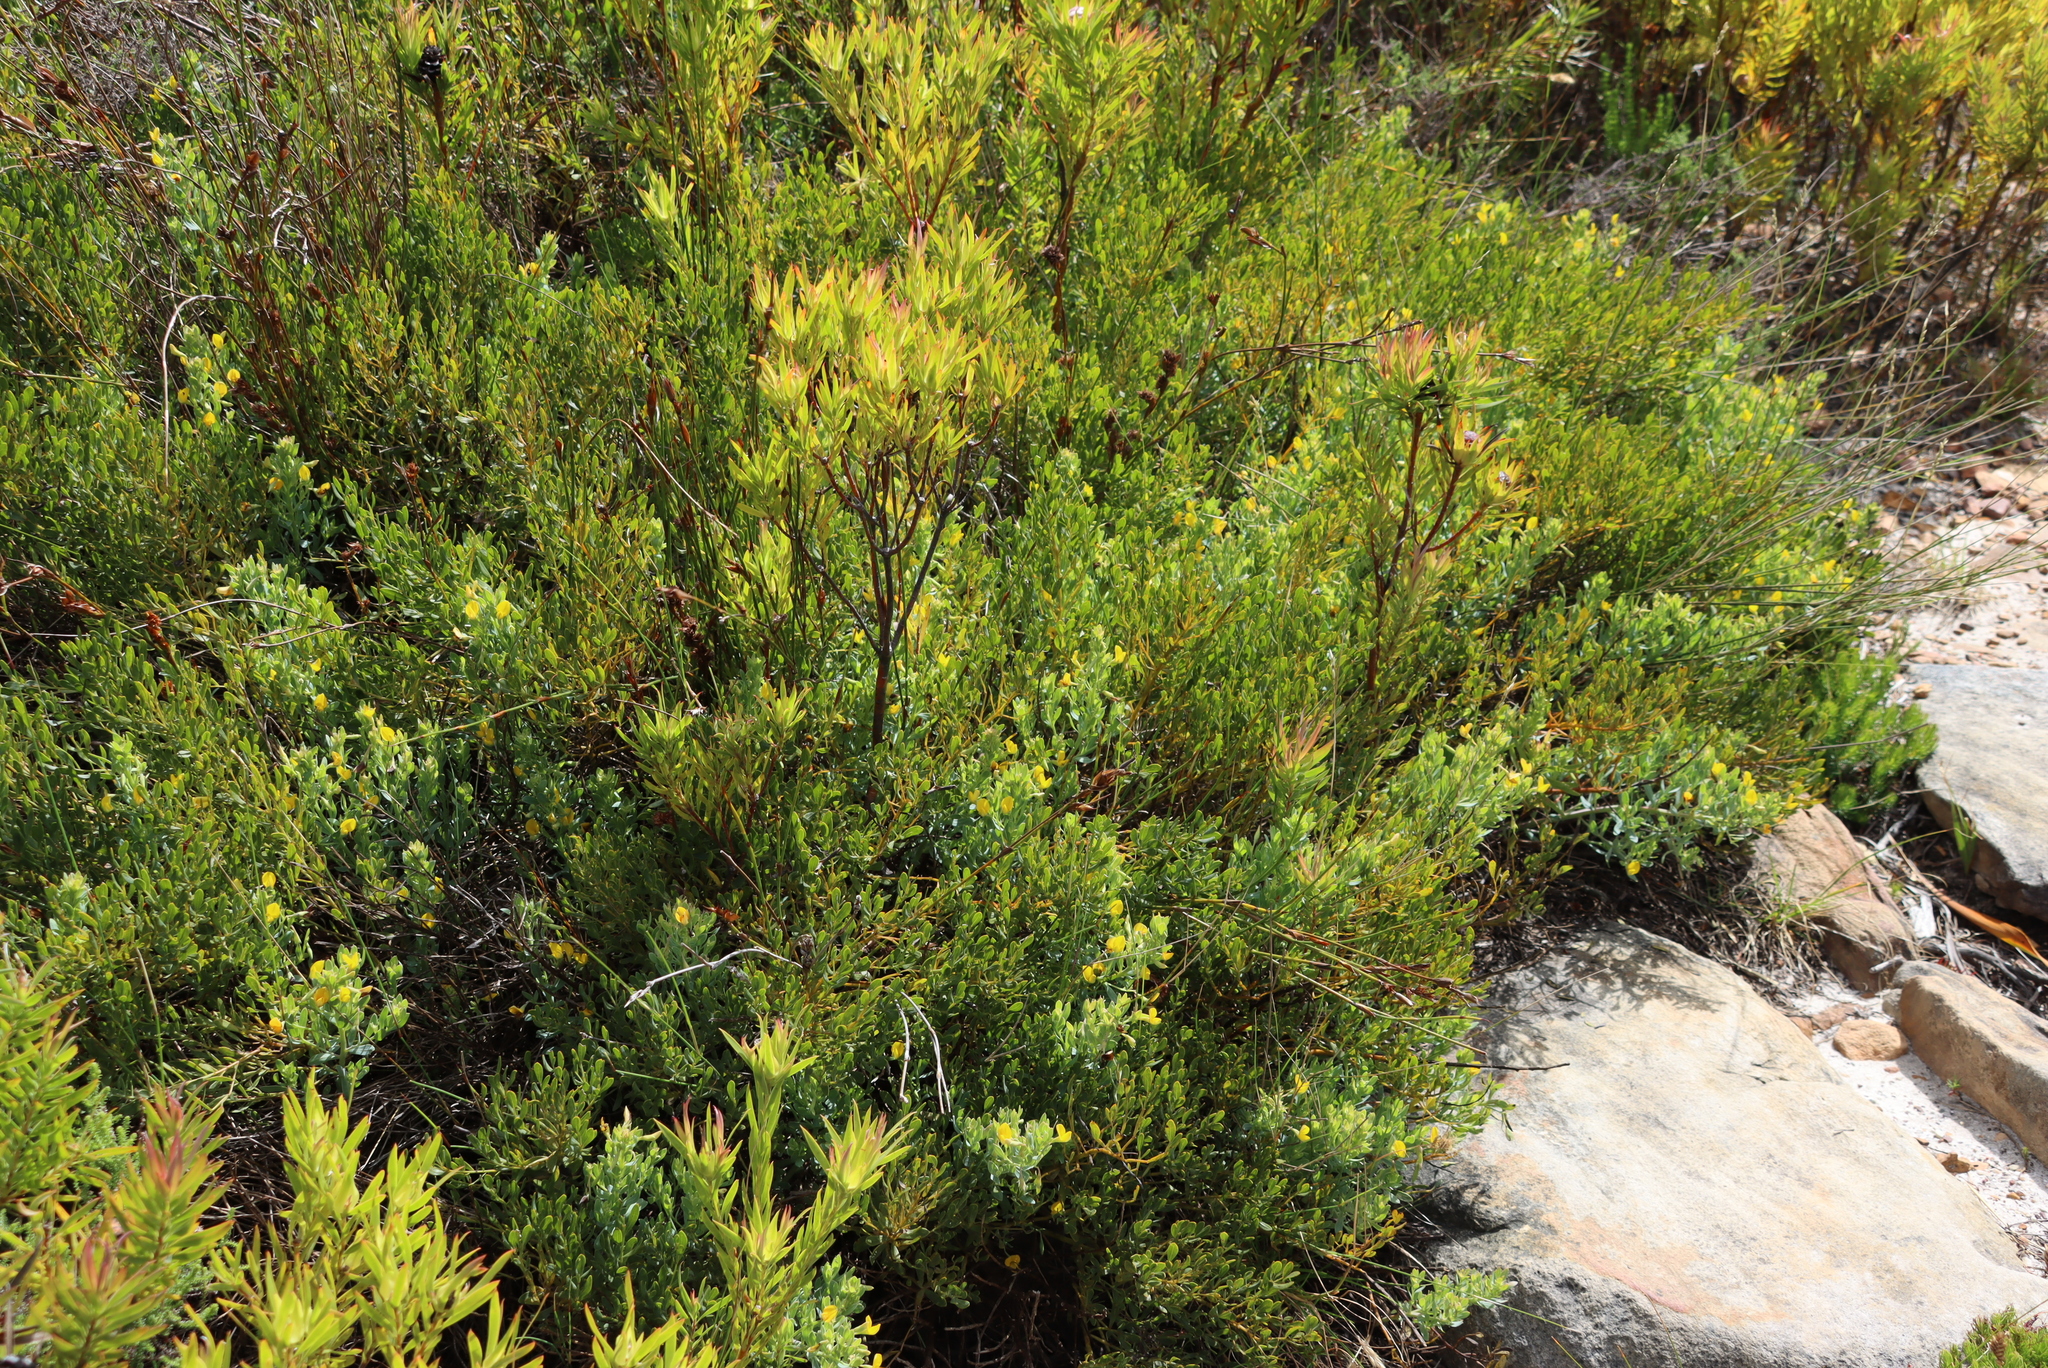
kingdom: Plantae
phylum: Tracheophyta
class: Magnoliopsida
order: Fabales
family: Fabaceae
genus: Rafnia
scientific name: Rafnia angulata
